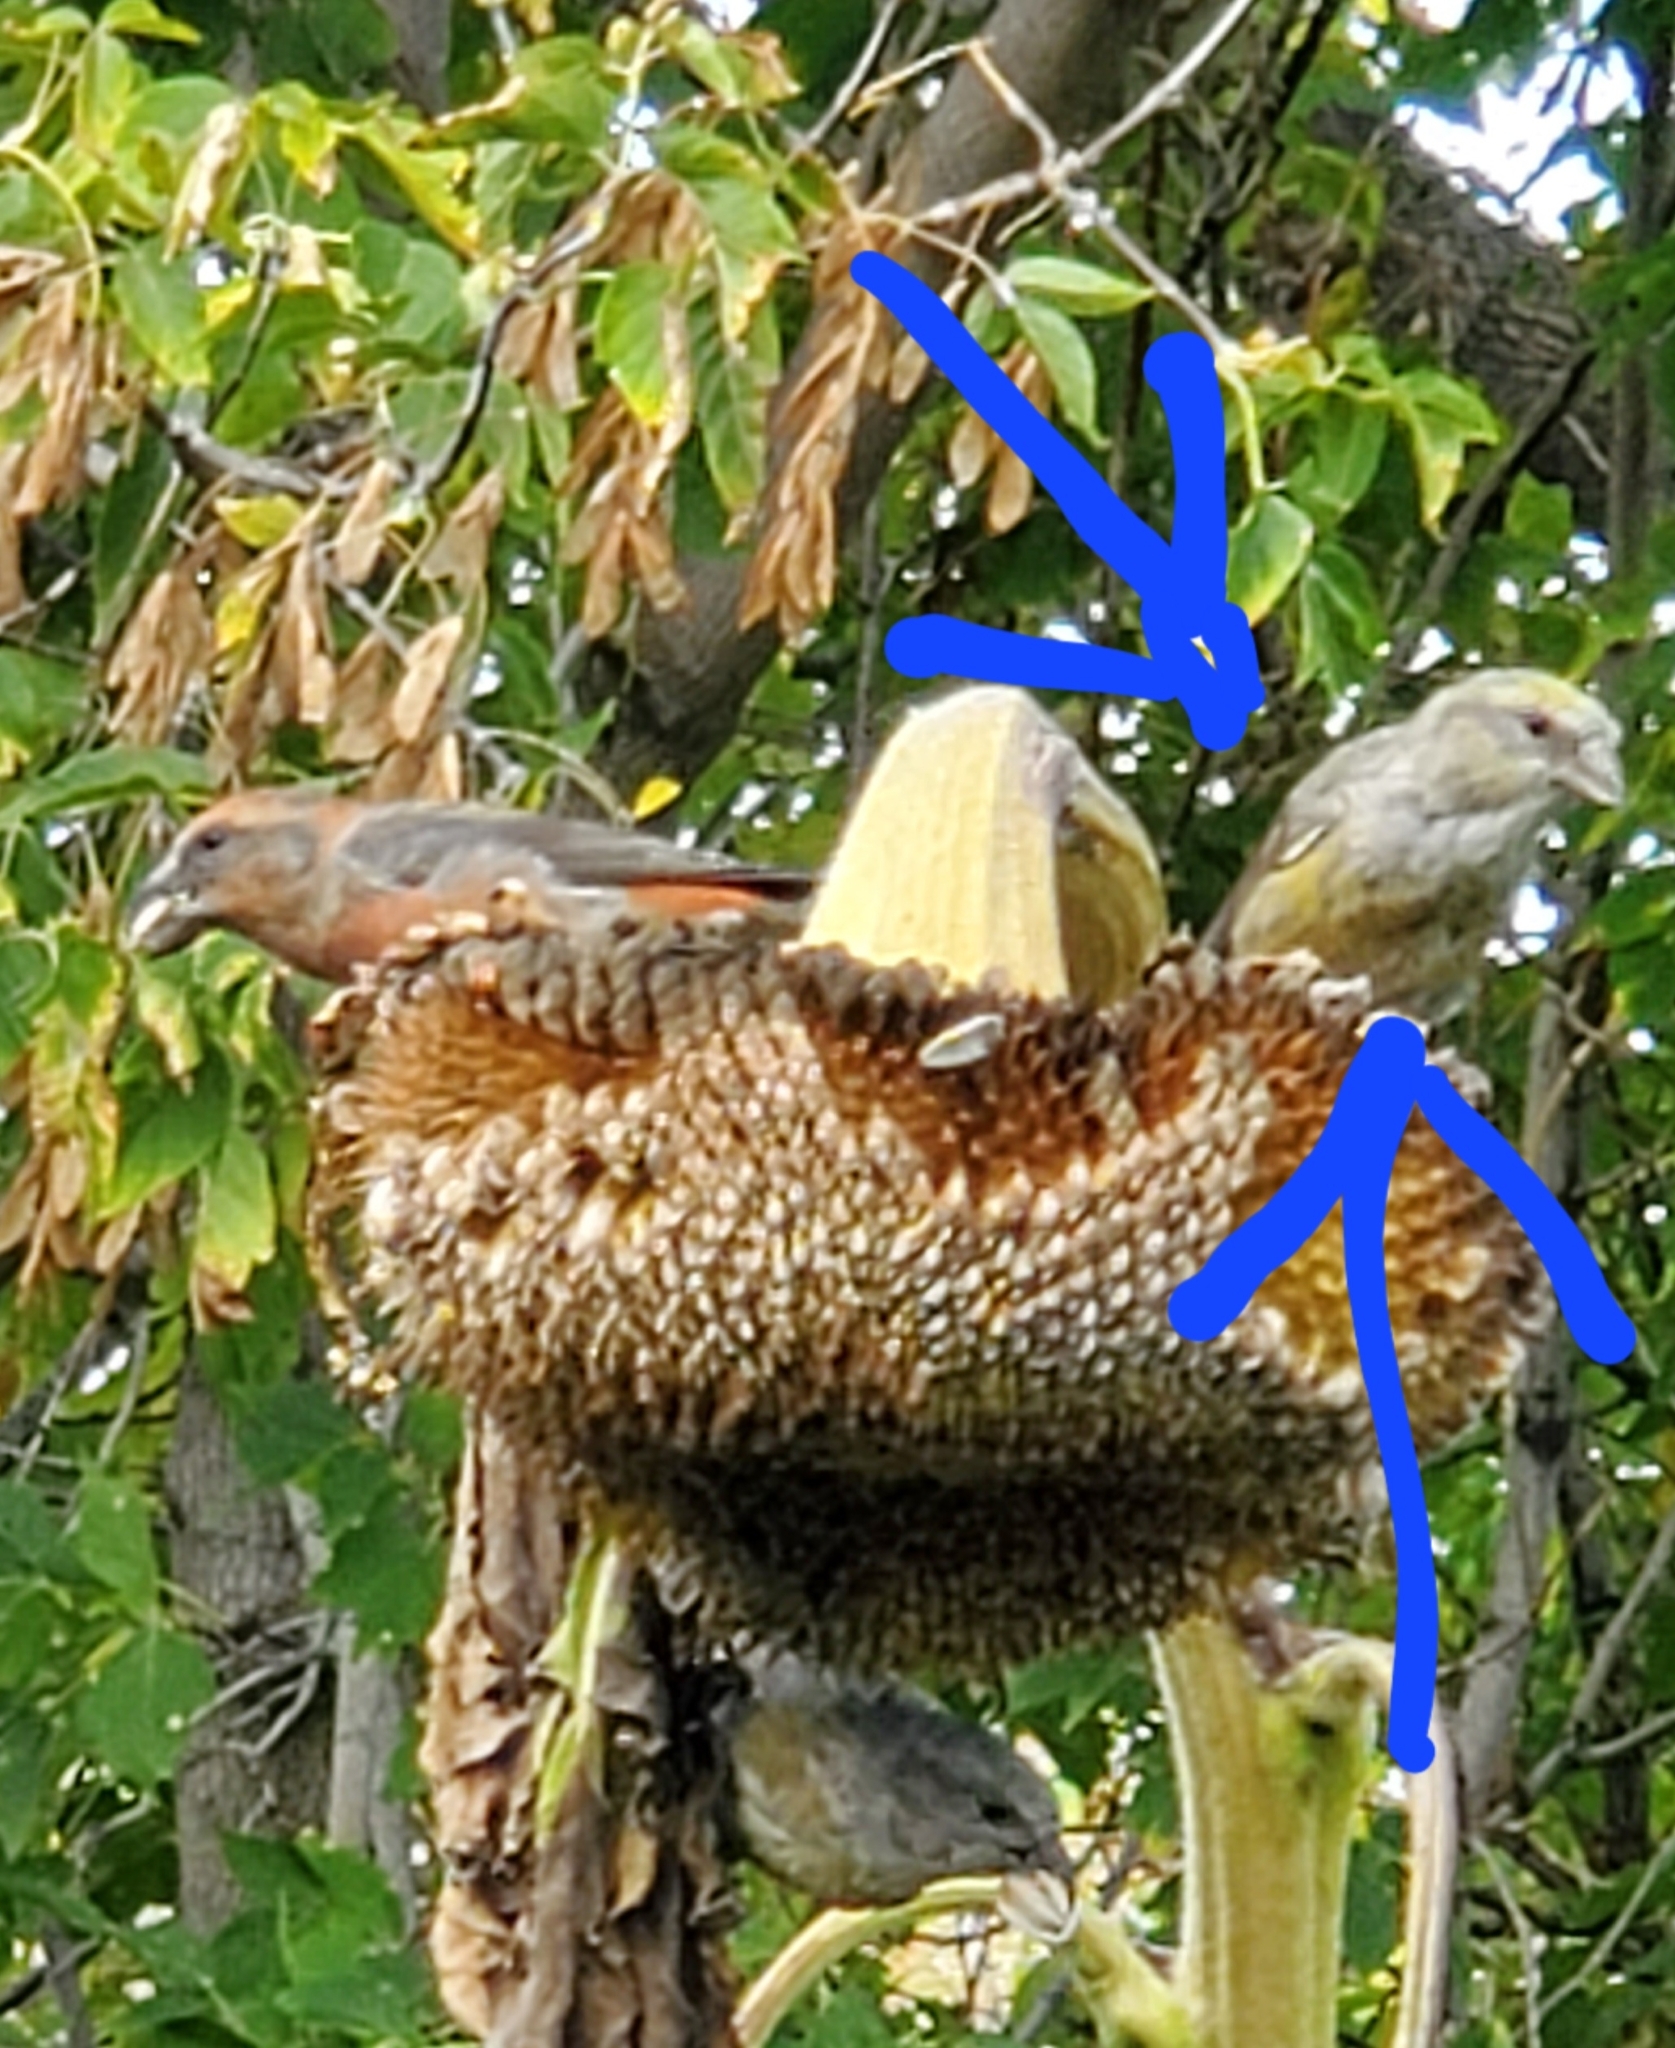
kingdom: Animalia
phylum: Chordata
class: Aves
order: Passeriformes
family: Fringillidae
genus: Loxia
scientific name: Loxia curvirostra
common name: Red crossbill
